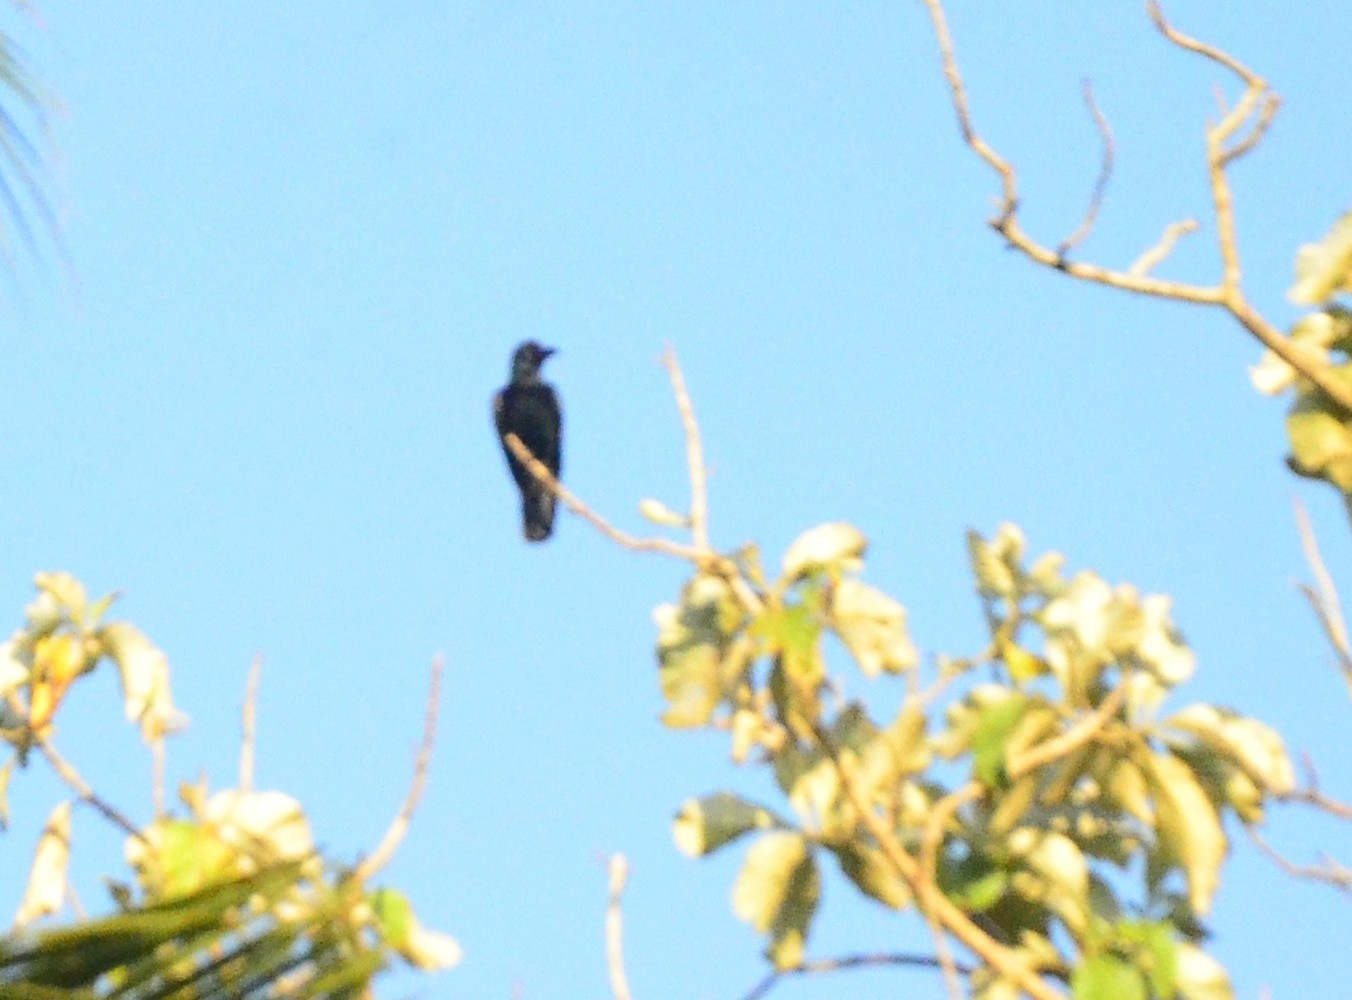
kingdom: Animalia
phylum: Chordata
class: Aves
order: Passeriformes
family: Corvidae
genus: Corvus
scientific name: Corvus macrorhynchos
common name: Large-billed crow
